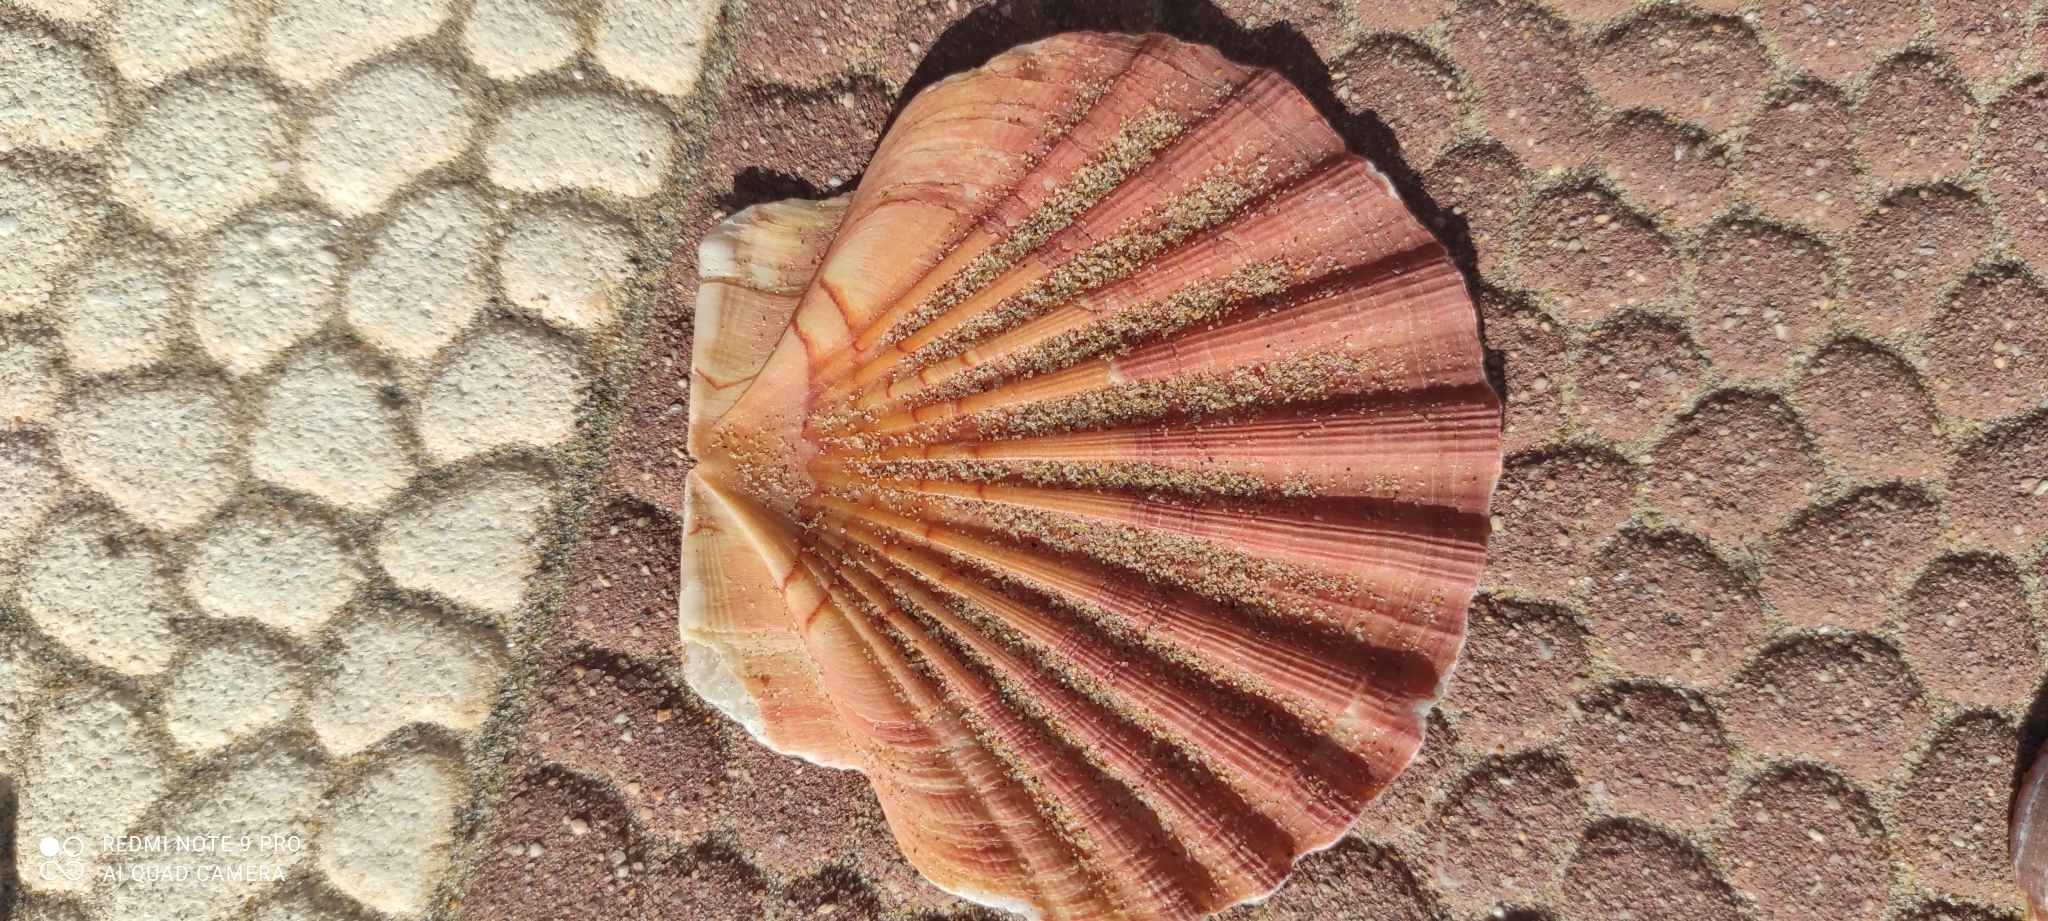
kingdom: Animalia
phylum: Mollusca
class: Bivalvia
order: Pectinida
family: Pectinidae
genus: Pecten
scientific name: Pecten maximus
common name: Great scallop
